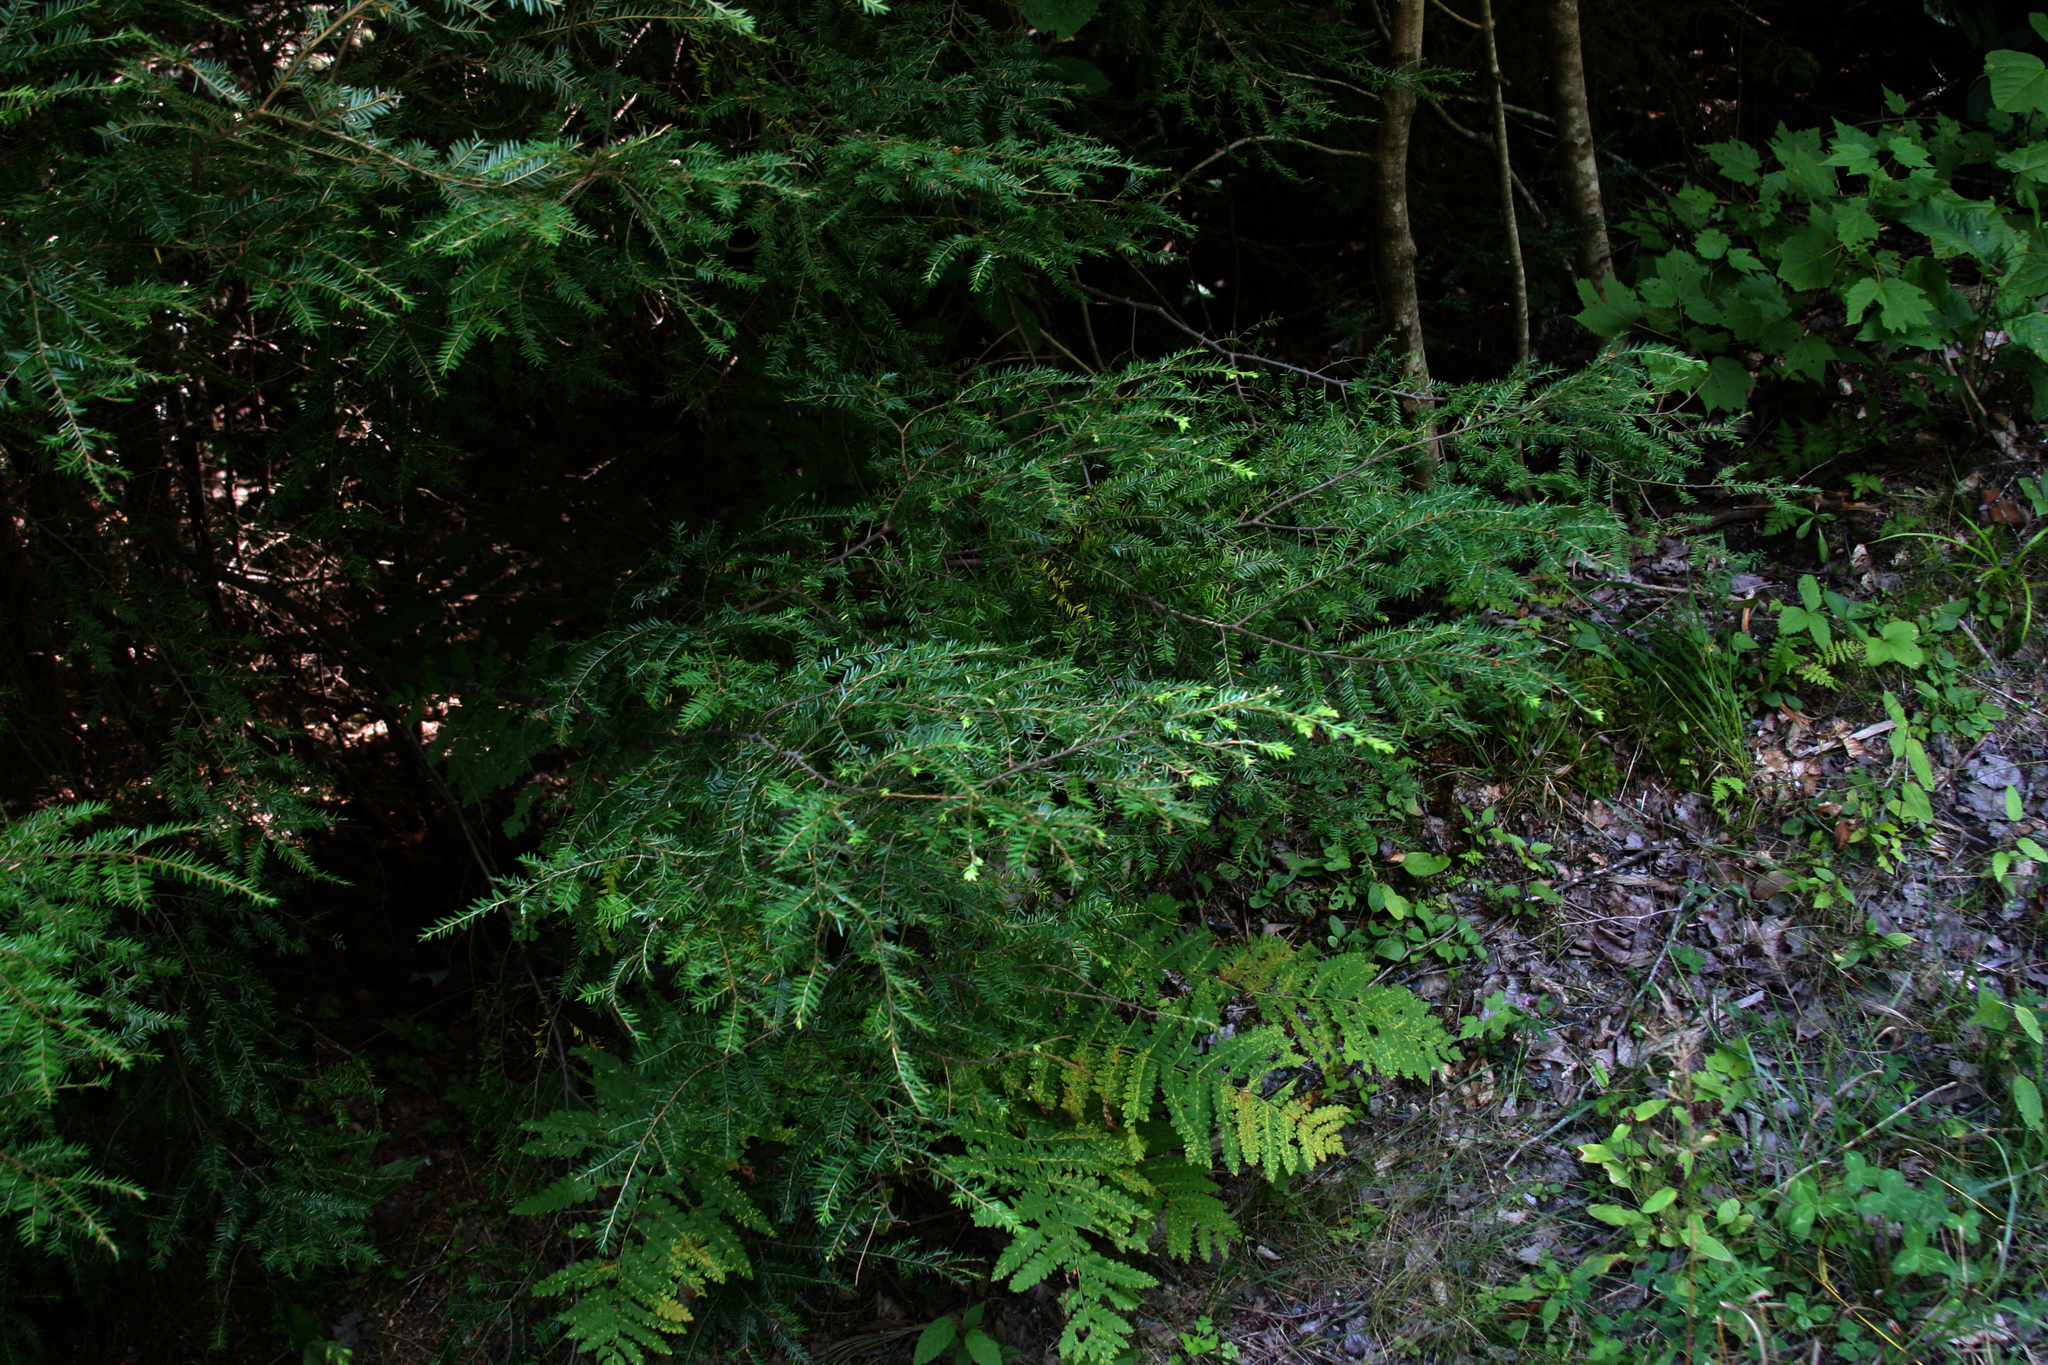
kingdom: Plantae
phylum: Tracheophyta
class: Pinopsida
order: Pinales
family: Pinaceae
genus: Tsuga
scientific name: Tsuga canadensis
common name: Eastern hemlock
